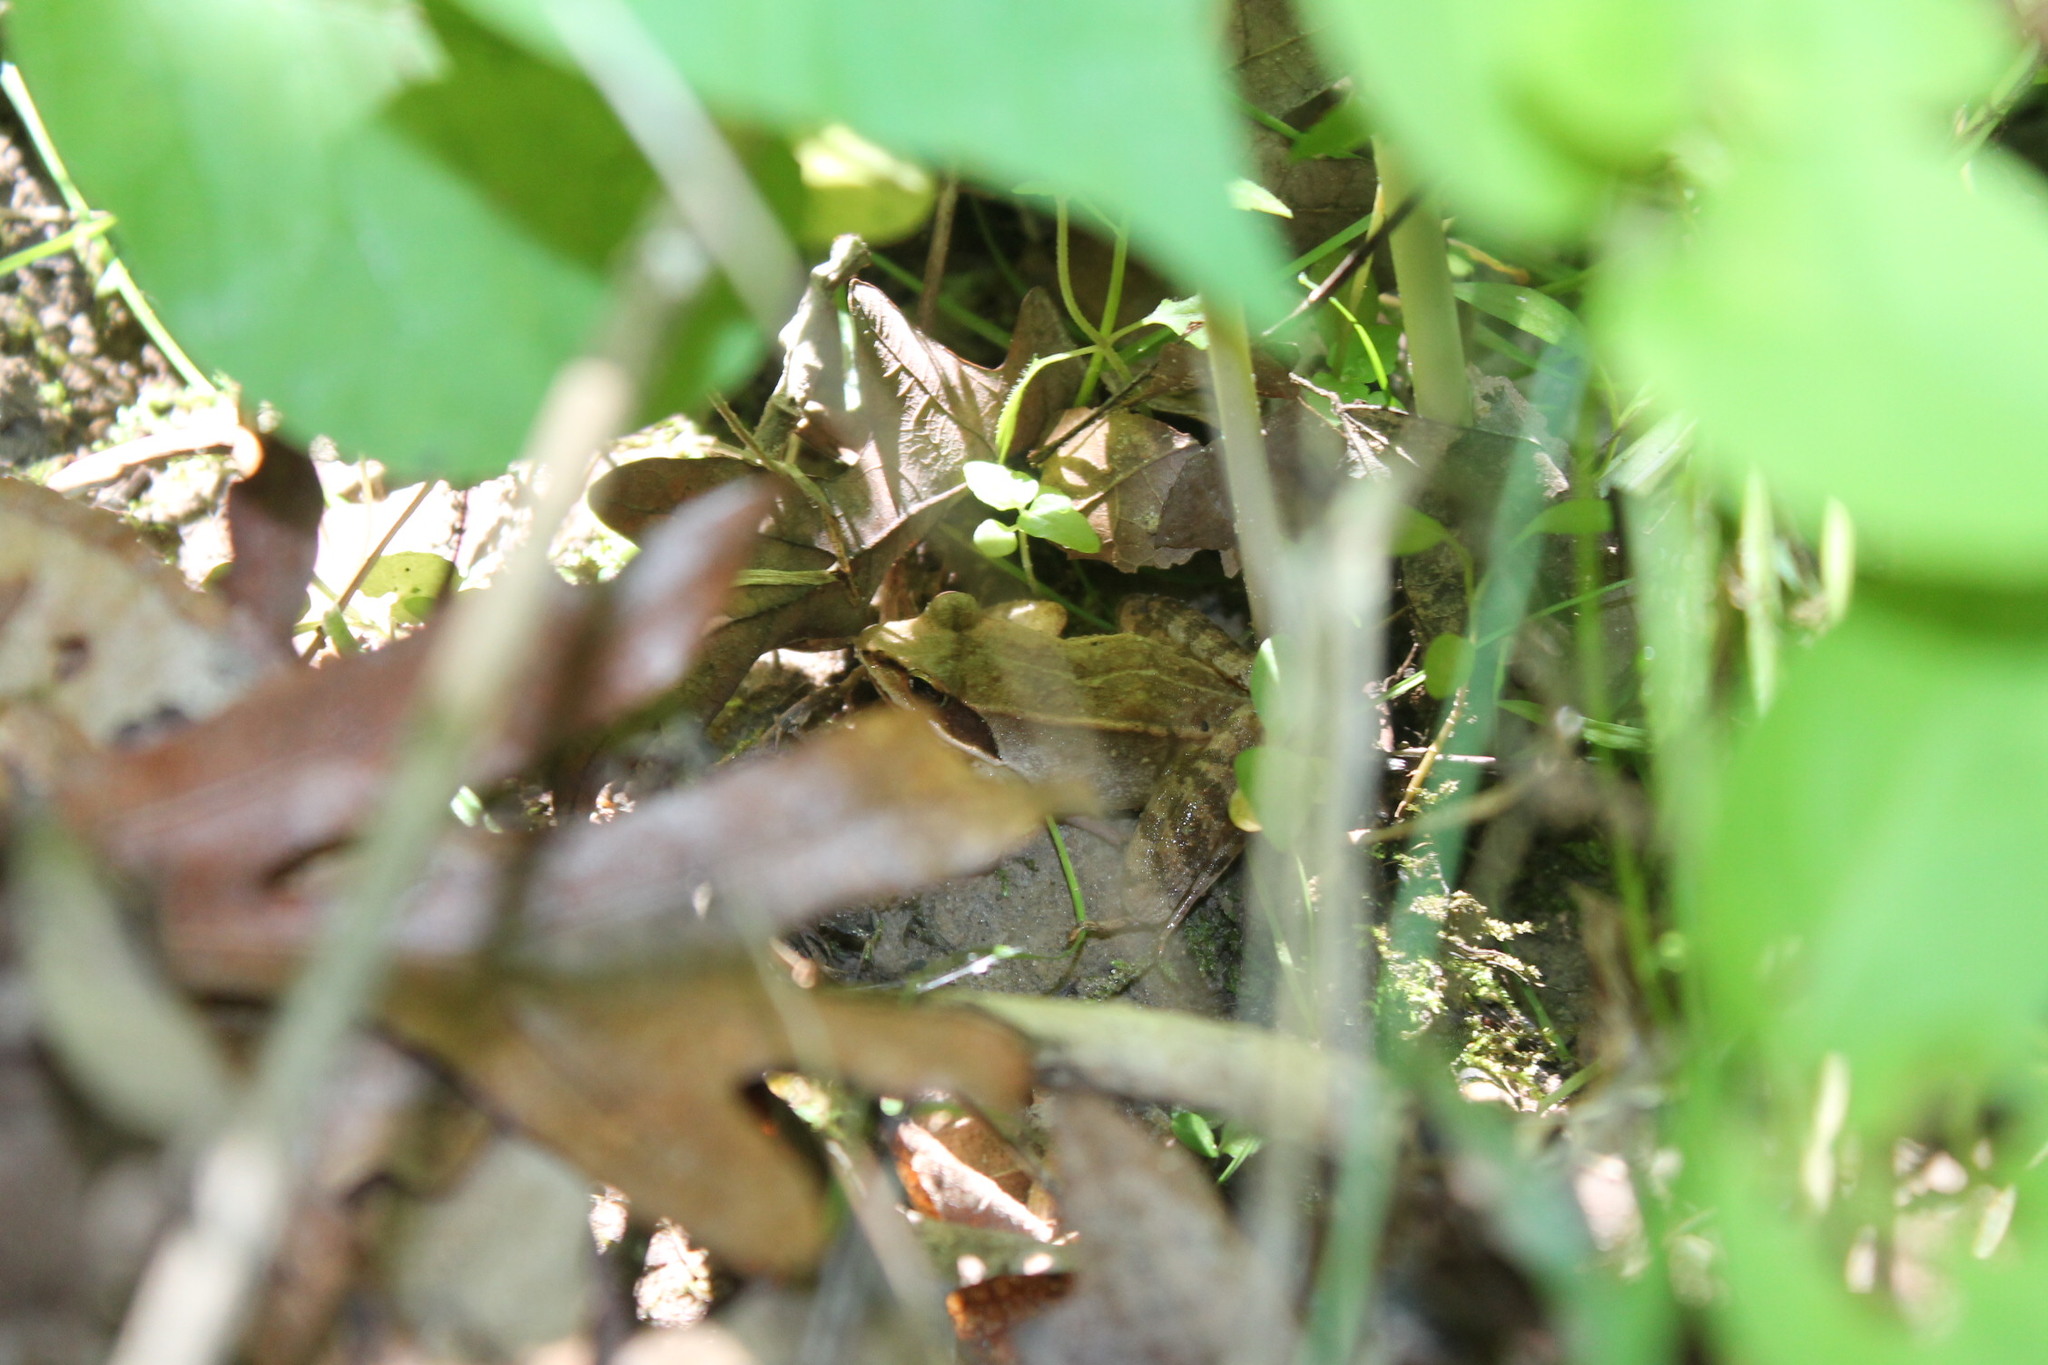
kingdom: Animalia
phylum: Chordata
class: Amphibia
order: Anura
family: Ranidae
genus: Lithobates
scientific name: Lithobates sylvaticus
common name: Wood frog
